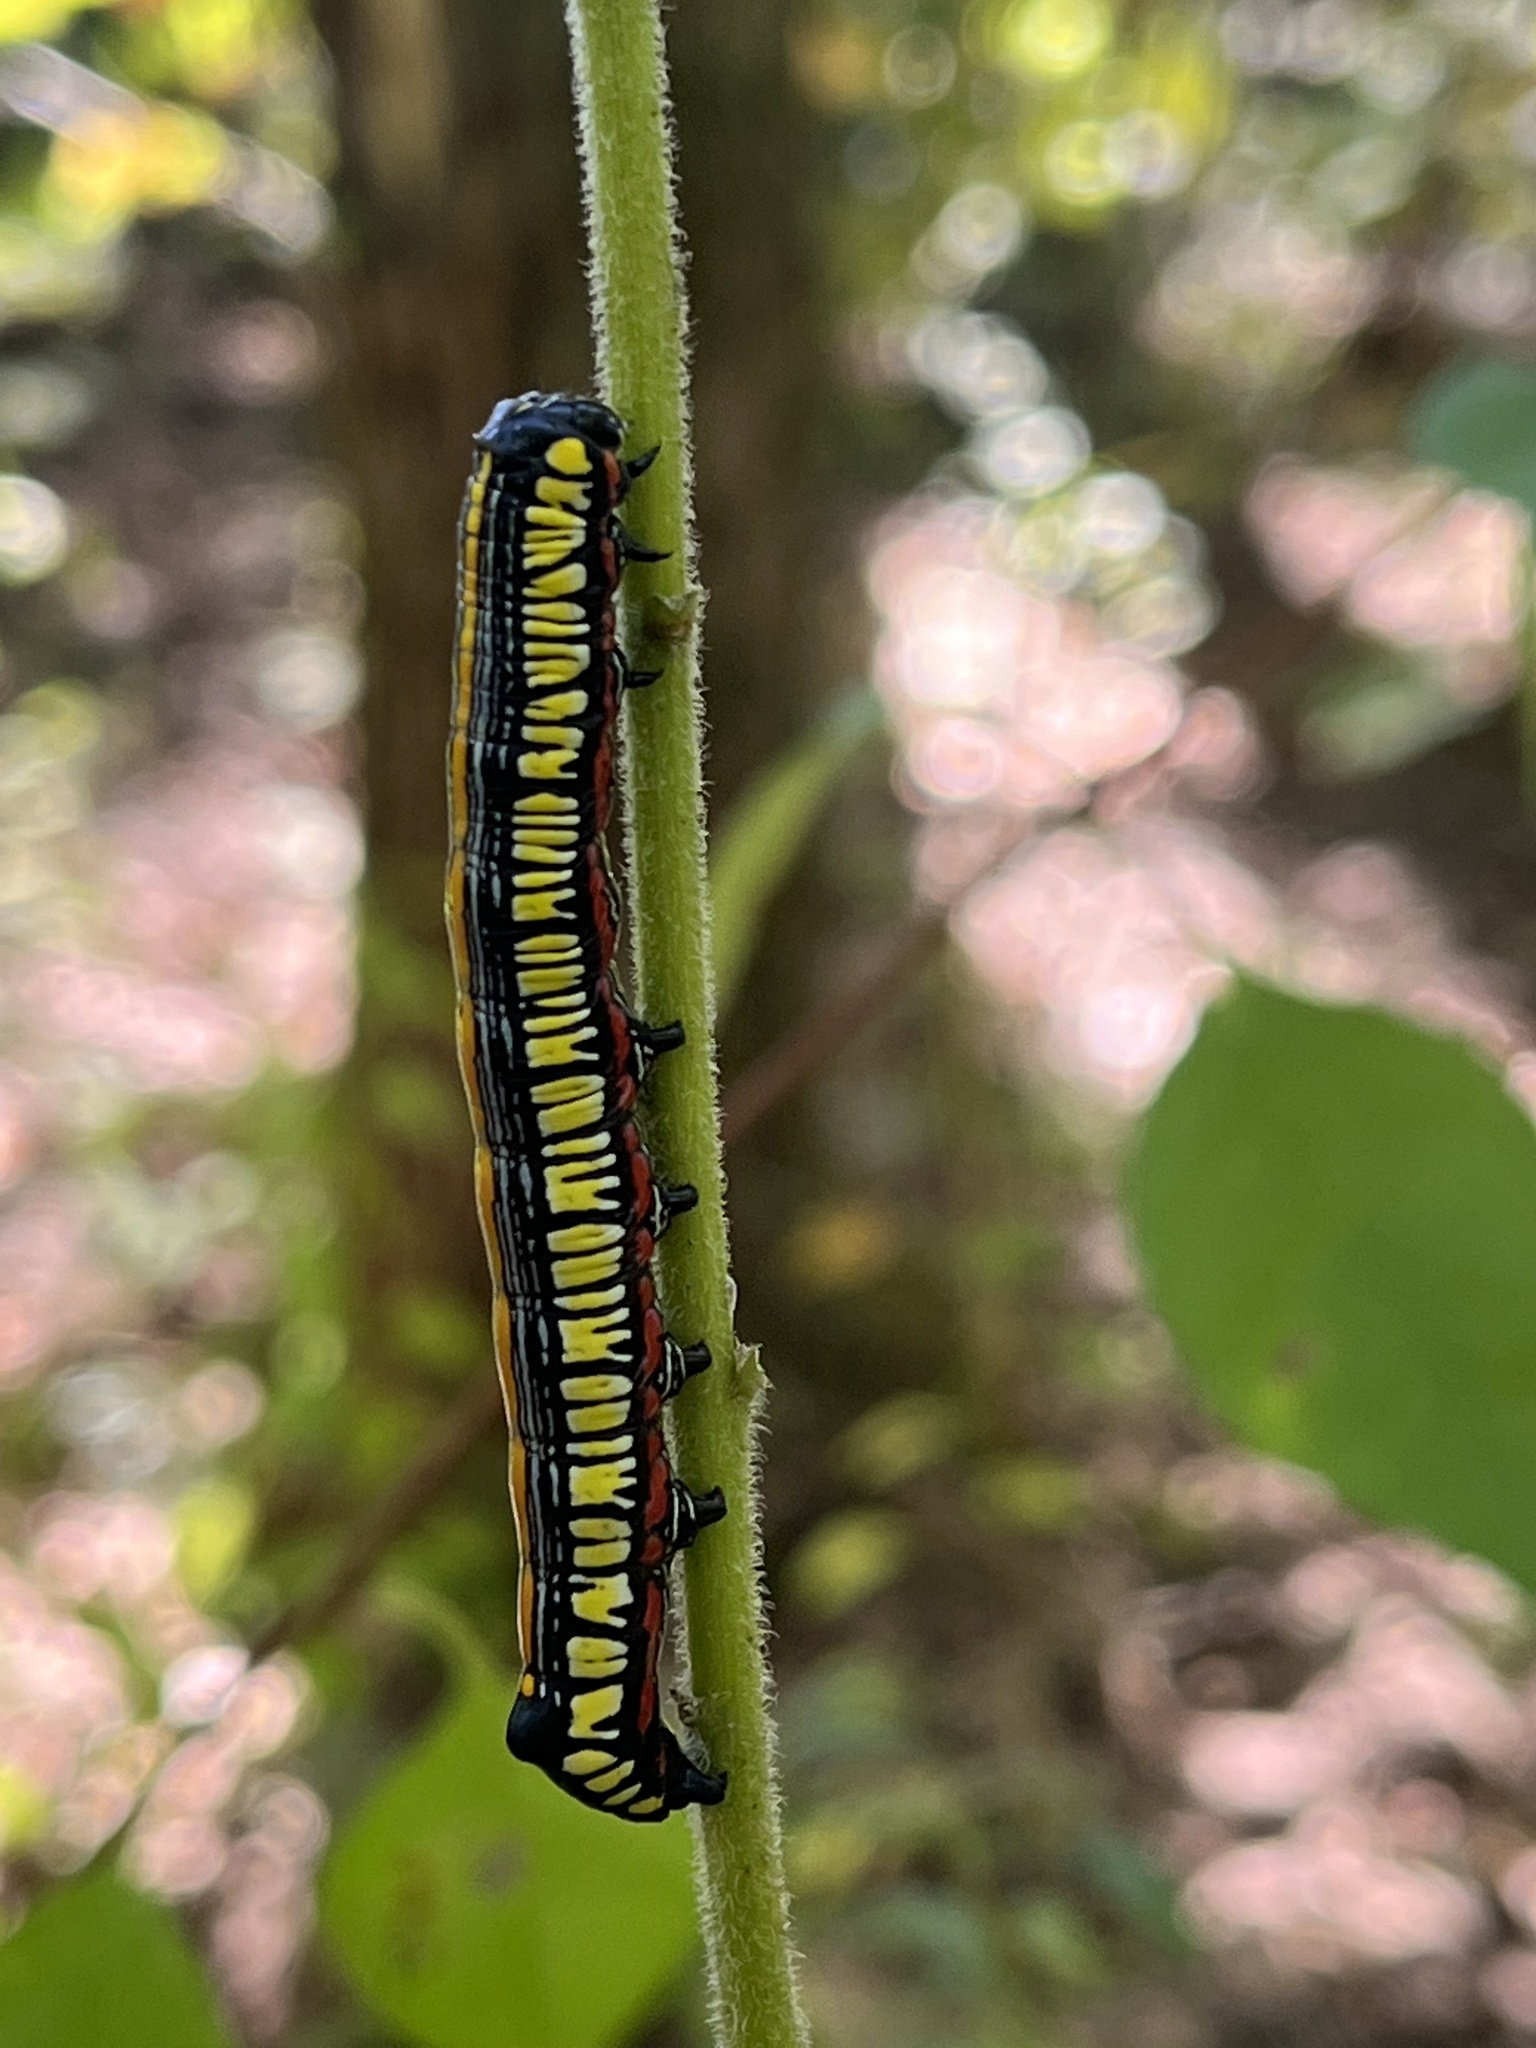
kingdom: Animalia
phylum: Arthropoda
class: Insecta
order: Lepidoptera
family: Noctuidae
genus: Cucullia
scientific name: Cucullia convexipennis
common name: Brown-hooded owlet
